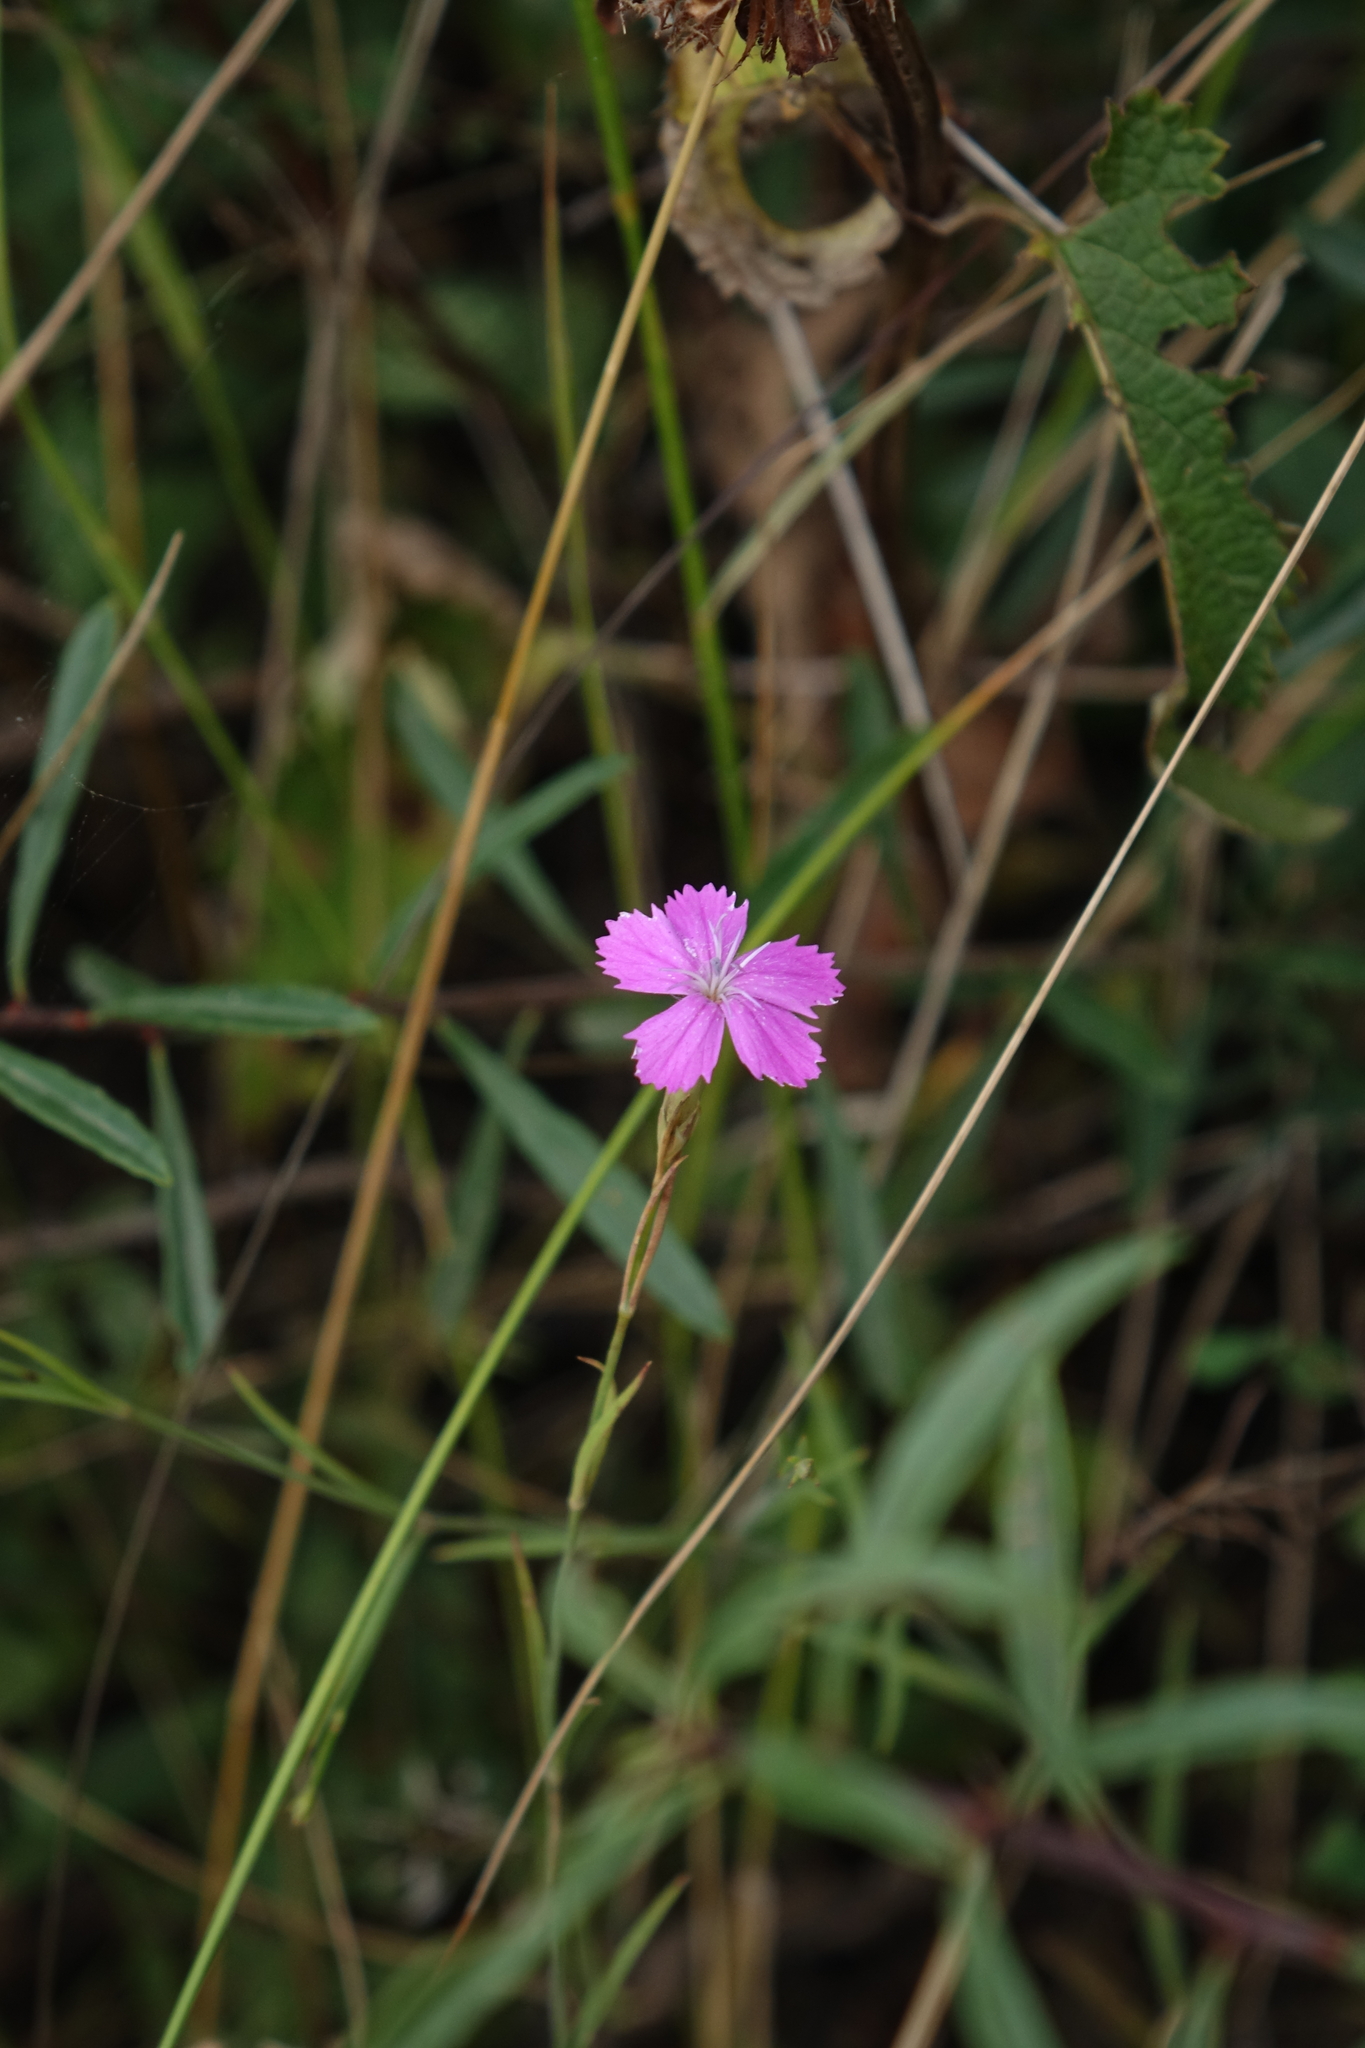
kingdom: Plantae
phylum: Tracheophyta
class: Magnoliopsida
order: Caryophyllales
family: Caryophyllaceae
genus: Dianthus
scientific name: Dianthus bicolor
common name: Bicolour pink
